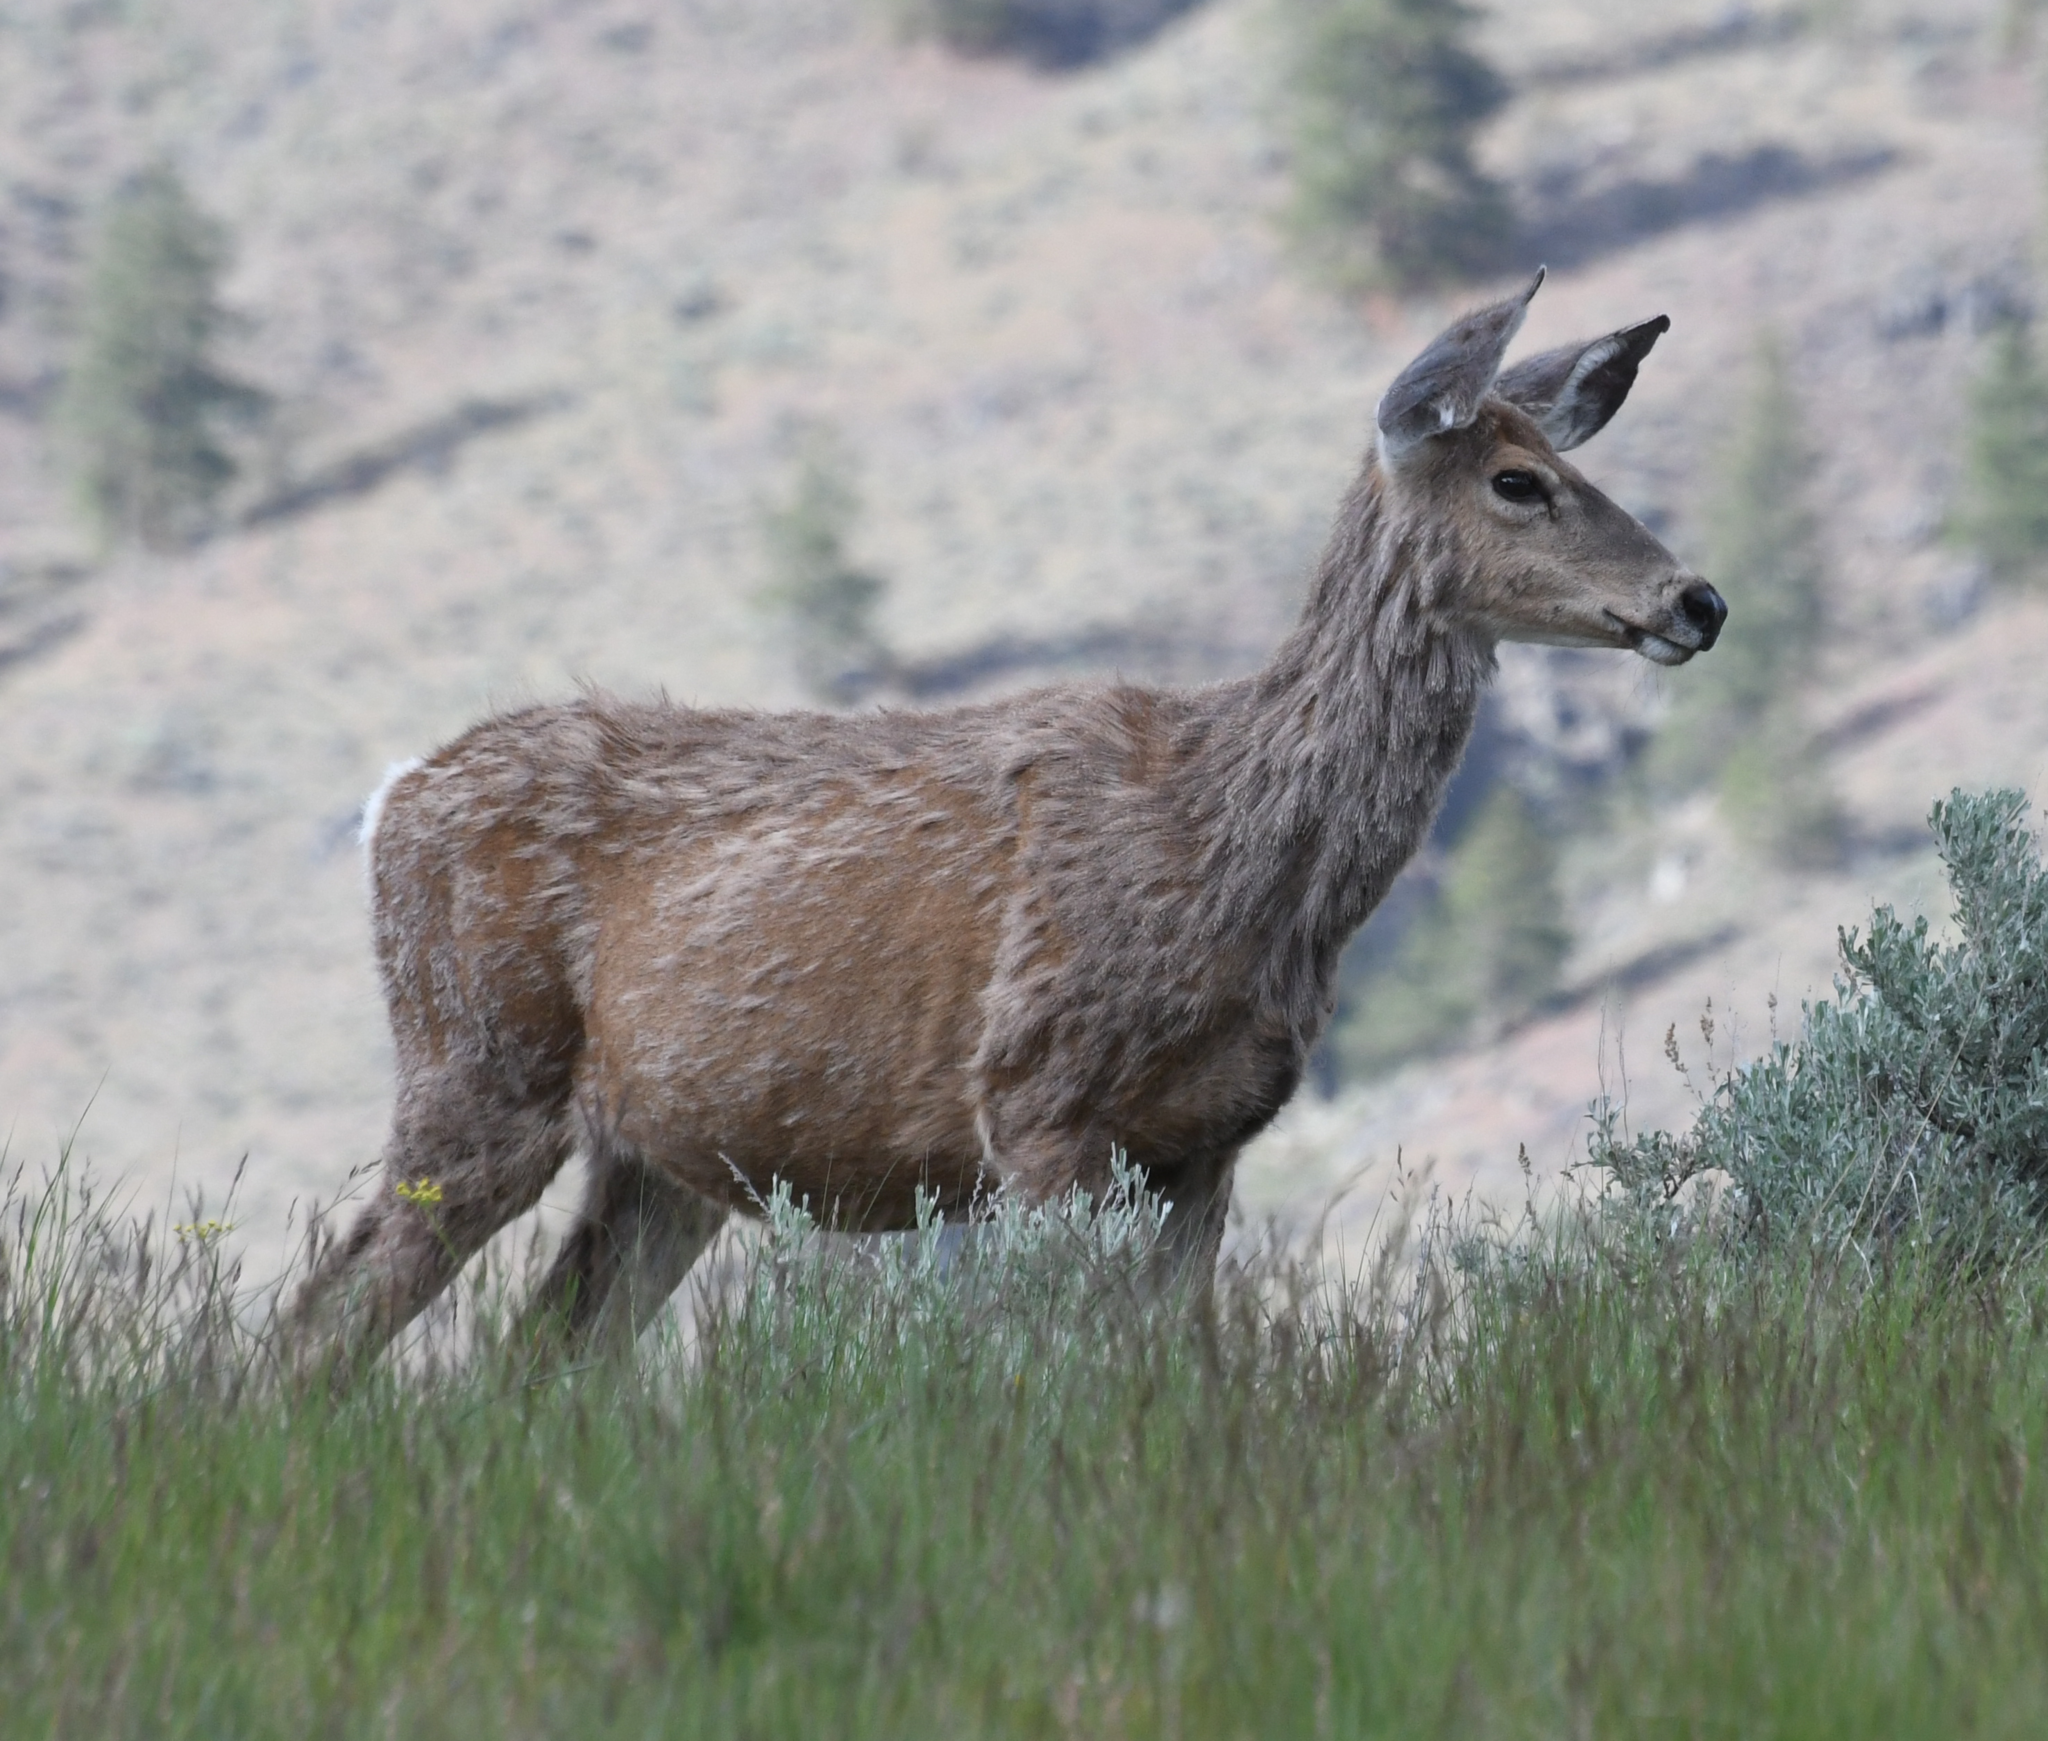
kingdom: Animalia
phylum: Chordata
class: Mammalia
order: Artiodactyla
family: Cervidae
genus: Odocoileus
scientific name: Odocoileus hemionus
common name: Mule deer
